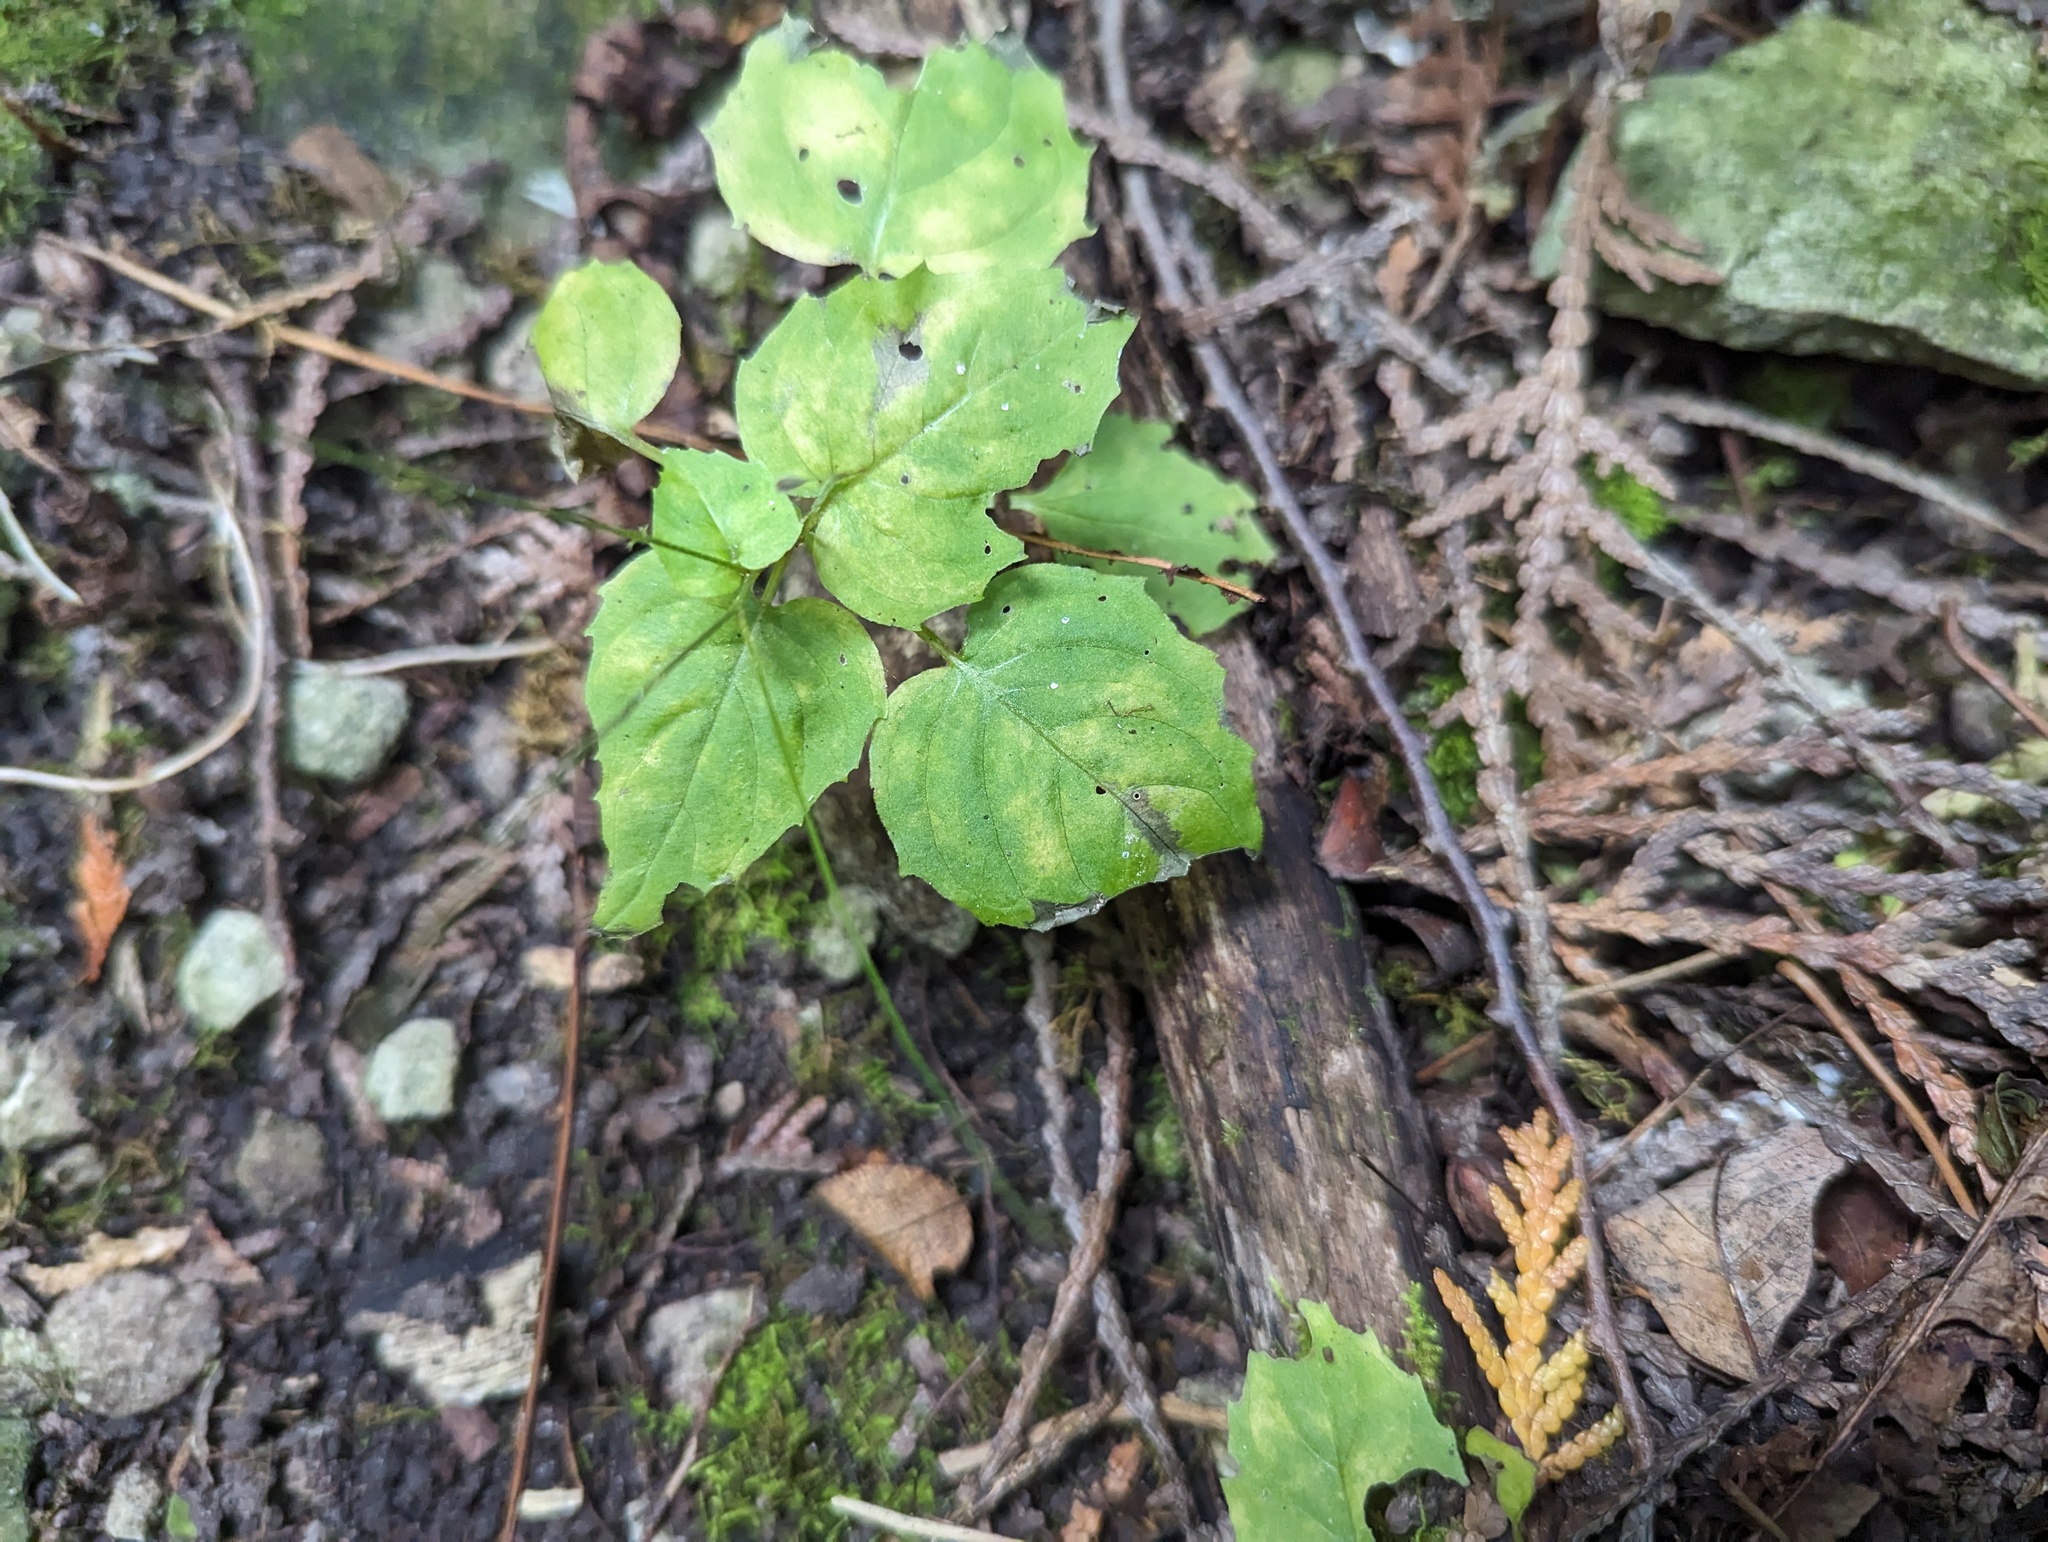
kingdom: Plantae
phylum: Tracheophyta
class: Magnoliopsida
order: Myrtales
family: Onagraceae
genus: Circaea
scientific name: Circaea alpina
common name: Alpine enchanter's-nightshade
